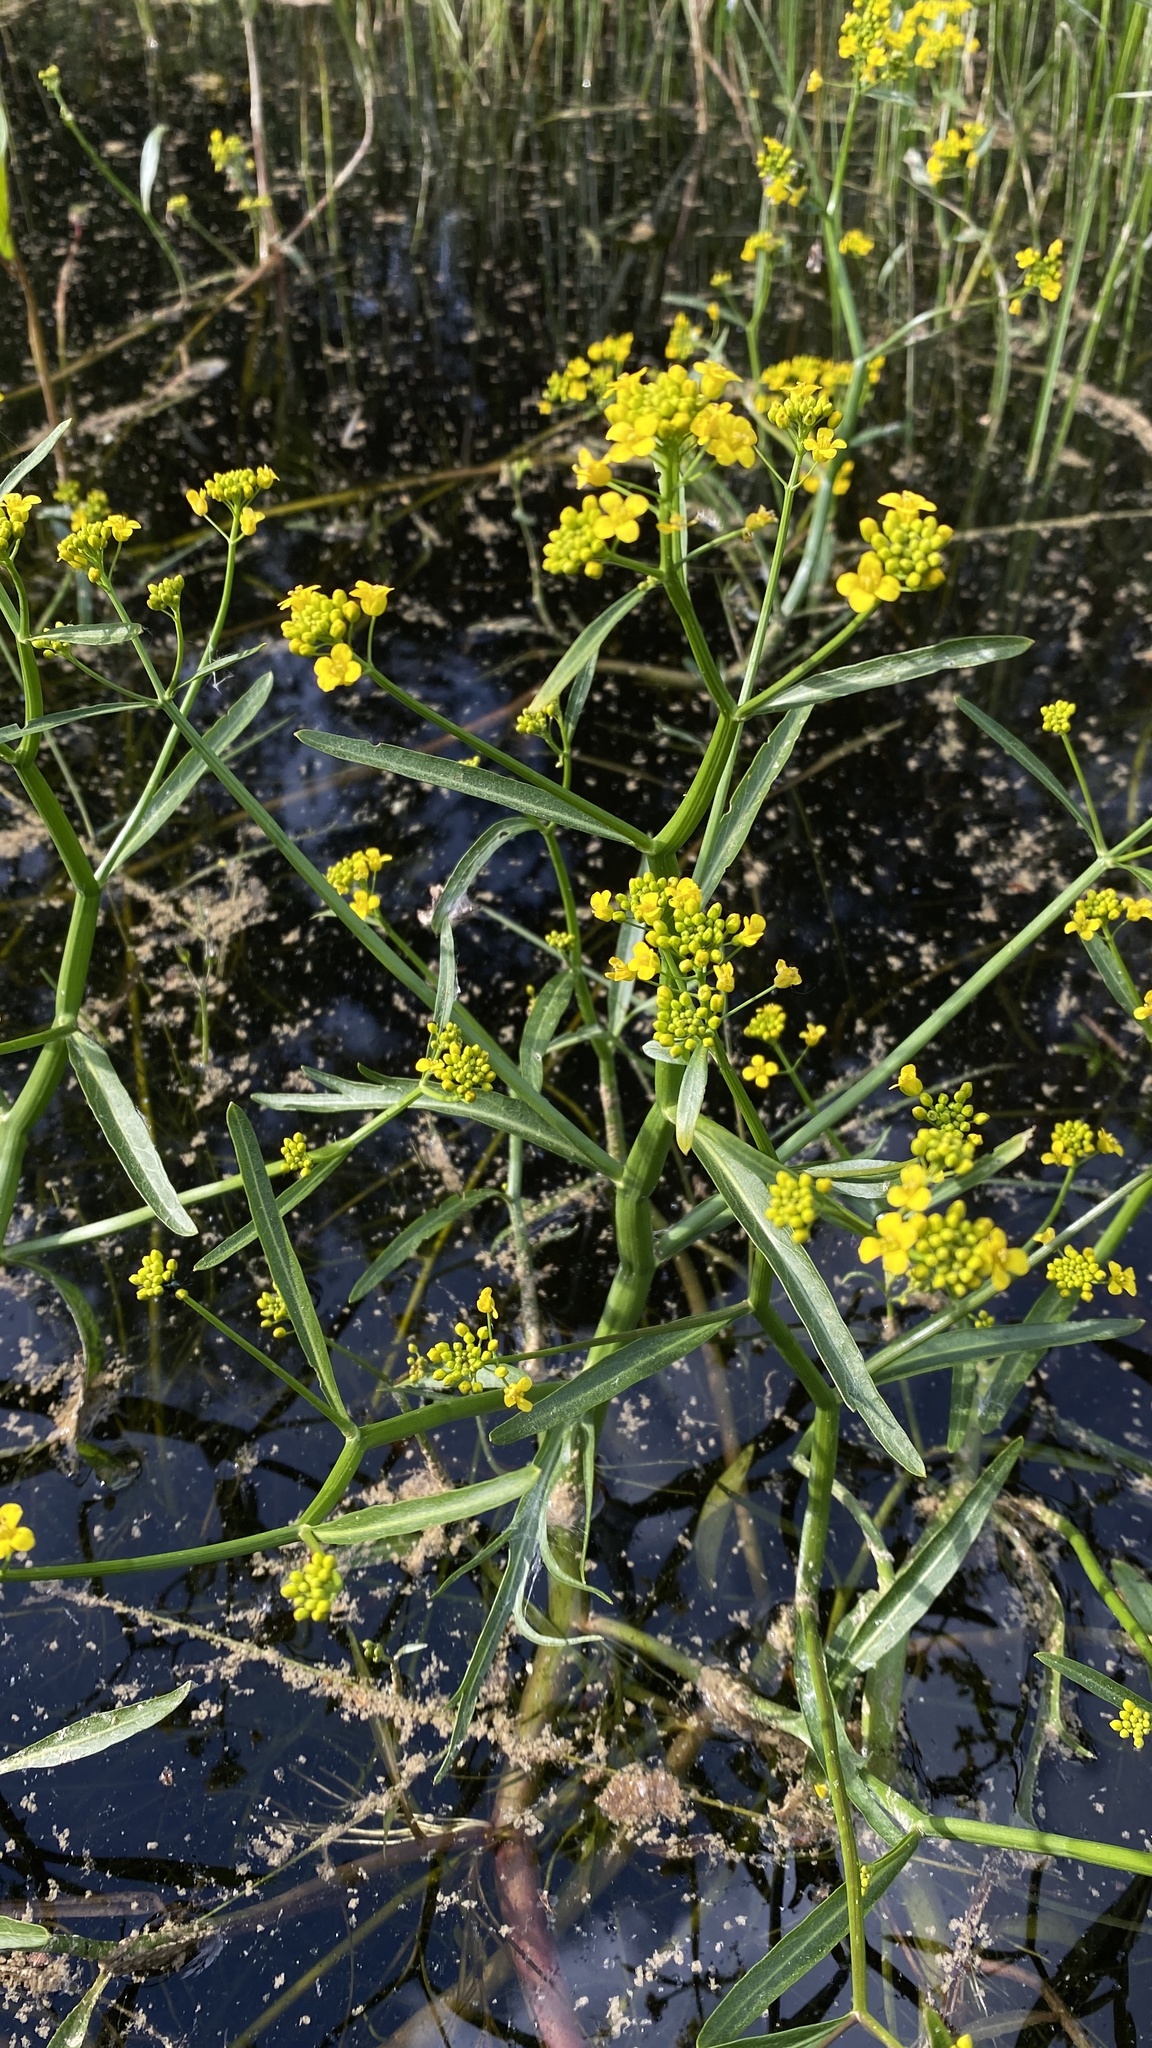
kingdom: Plantae
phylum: Tracheophyta
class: Magnoliopsida
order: Brassicales
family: Brassicaceae
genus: Rorippa
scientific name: Rorippa amphibia
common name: Great yellow-cress
